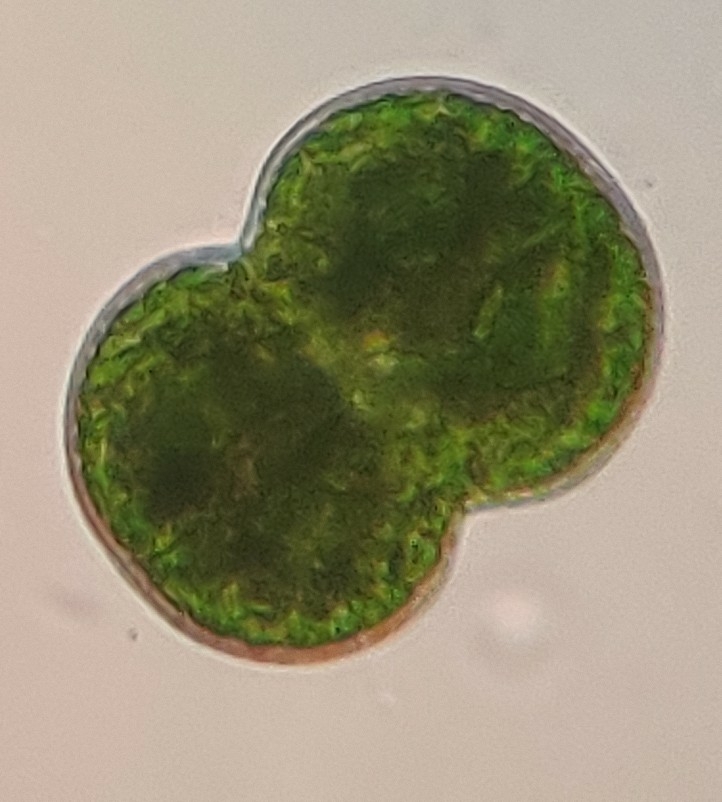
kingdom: Plantae
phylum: Charophyta
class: Conjugatophyceae
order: Desmidiales
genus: Cosmarium
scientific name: Cosmarium connatum
